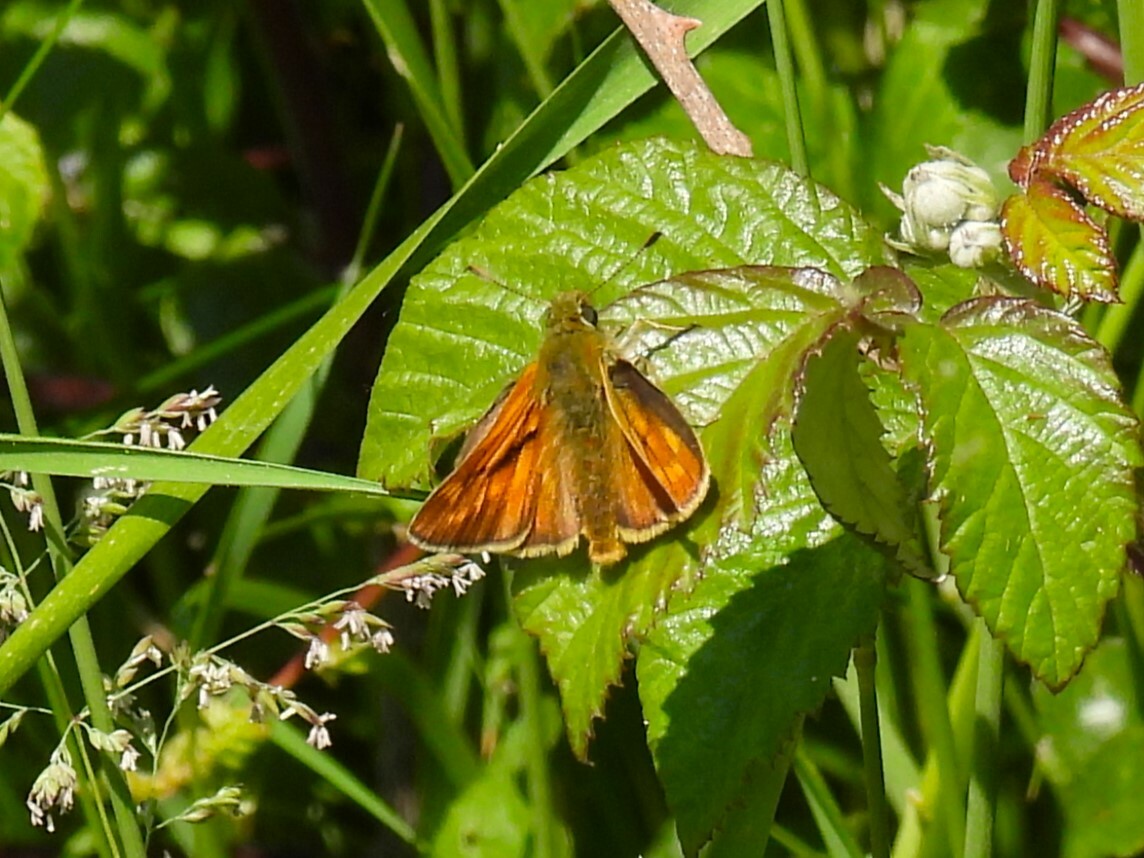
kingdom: Animalia
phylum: Arthropoda
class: Insecta
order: Lepidoptera
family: Hesperiidae
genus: Ochlodes
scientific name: Ochlodes venata
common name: Large skipper
